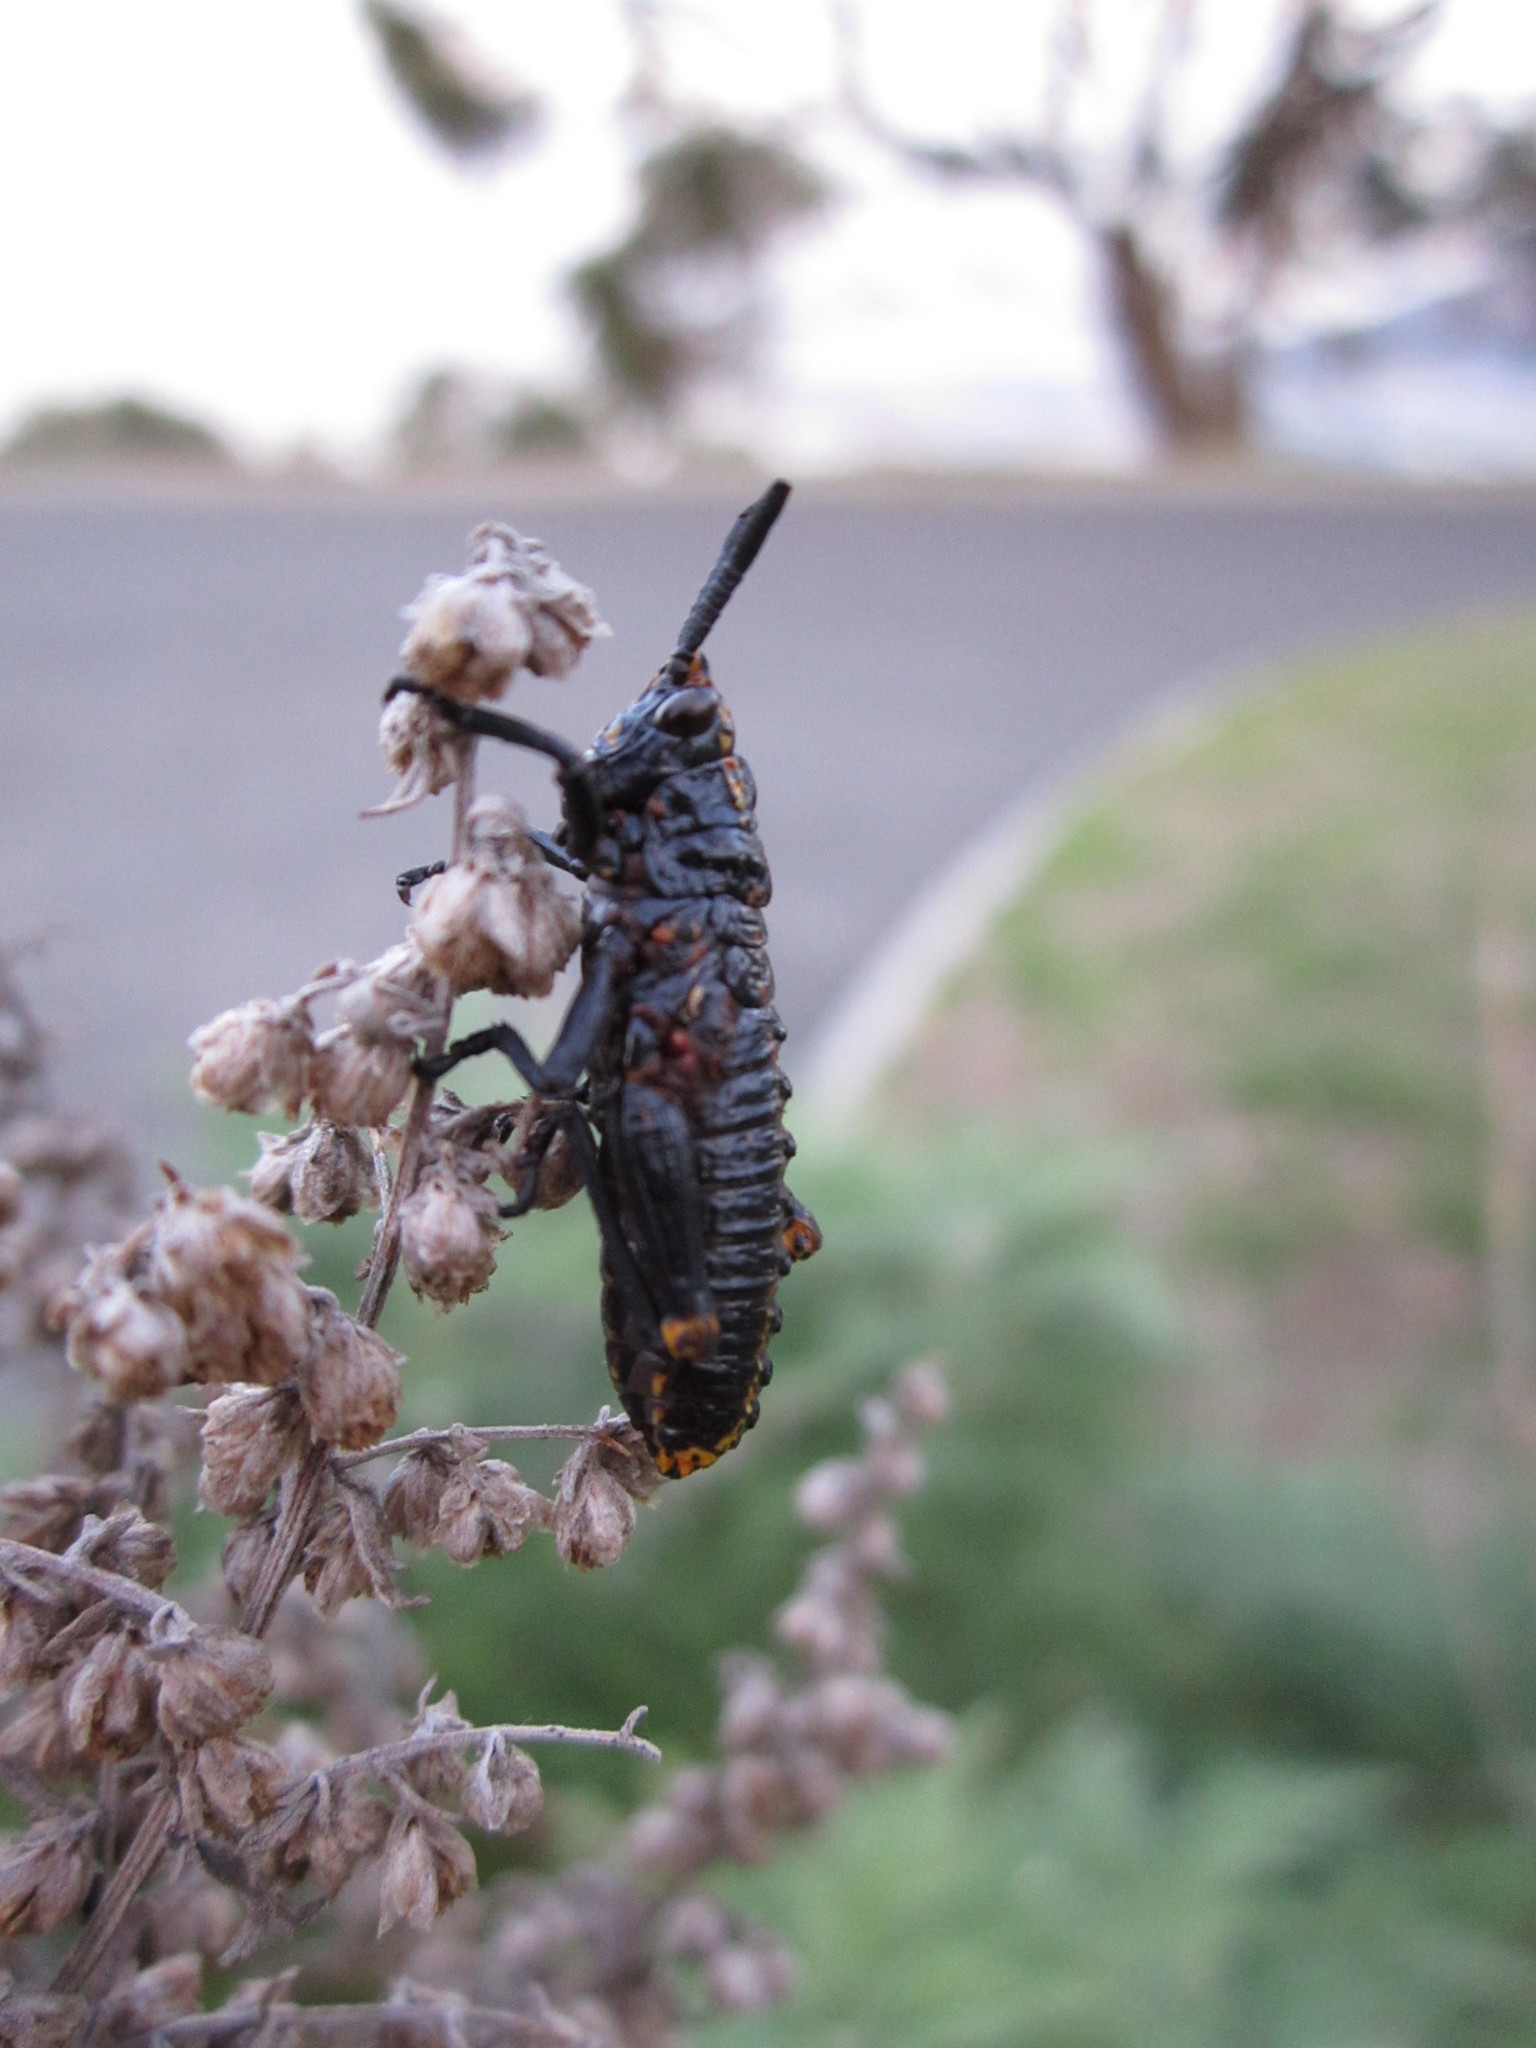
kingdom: Animalia
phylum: Arthropoda
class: Insecta
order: Orthoptera
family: Pyrgomorphidae
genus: Dictyophorus
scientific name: Dictyophorus spumans
